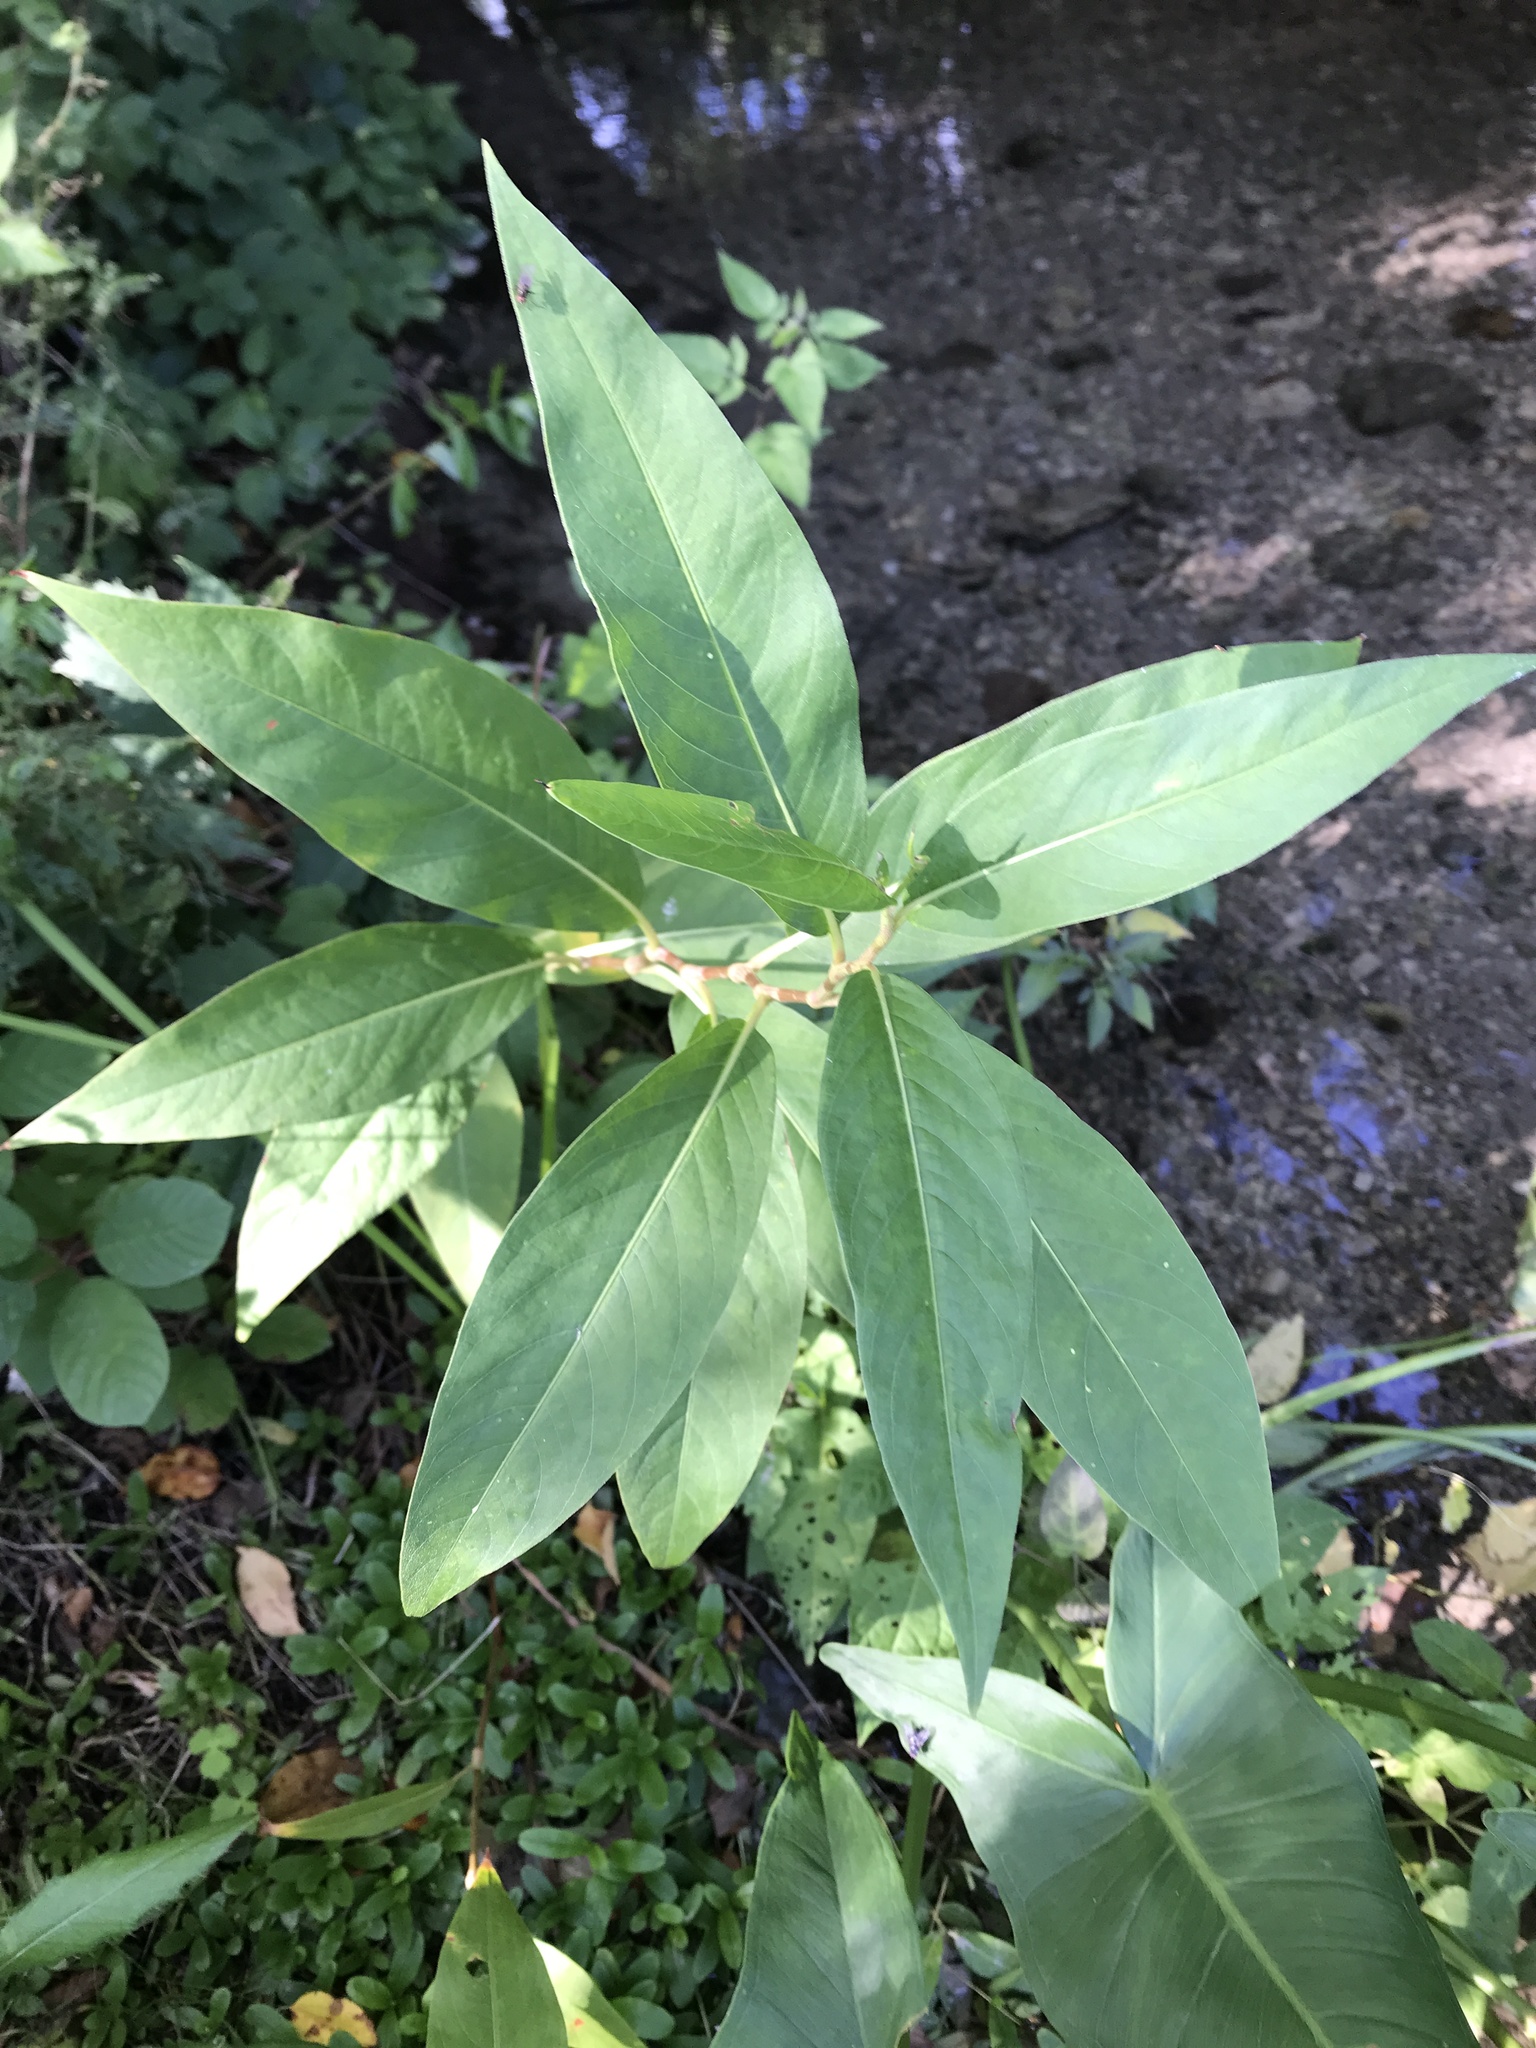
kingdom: Plantae
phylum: Tracheophyta
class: Magnoliopsida
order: Caryophyllales
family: Polygonaceae
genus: Persicaria
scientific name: Persicaria amphibia
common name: Amphibious bistort
